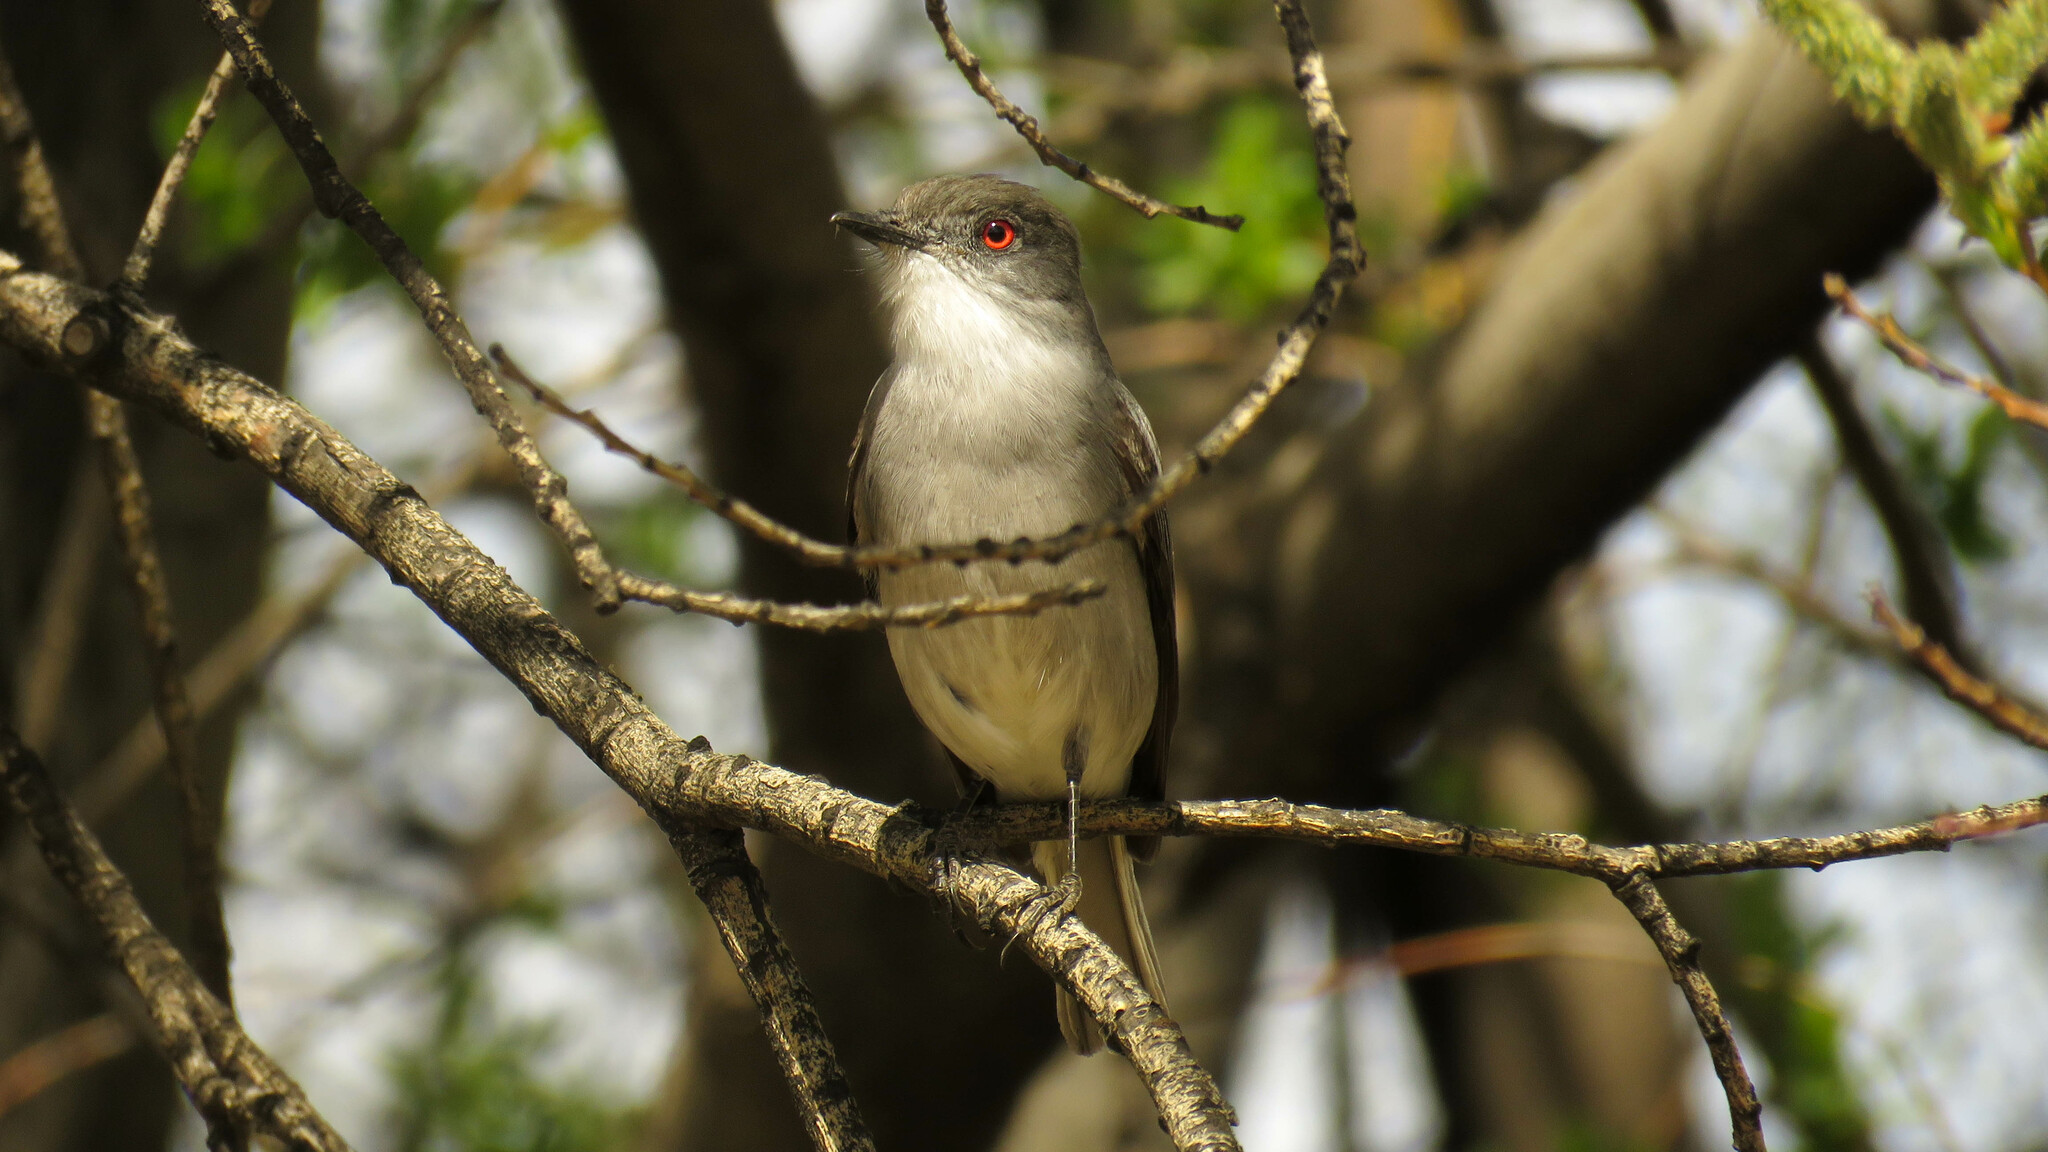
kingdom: Animalia
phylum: Chordata
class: Aves
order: Passeriformes
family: Tyrannidae
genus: Xolmis
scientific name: Xolmis pyrope
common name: Fire-eyed diucon
